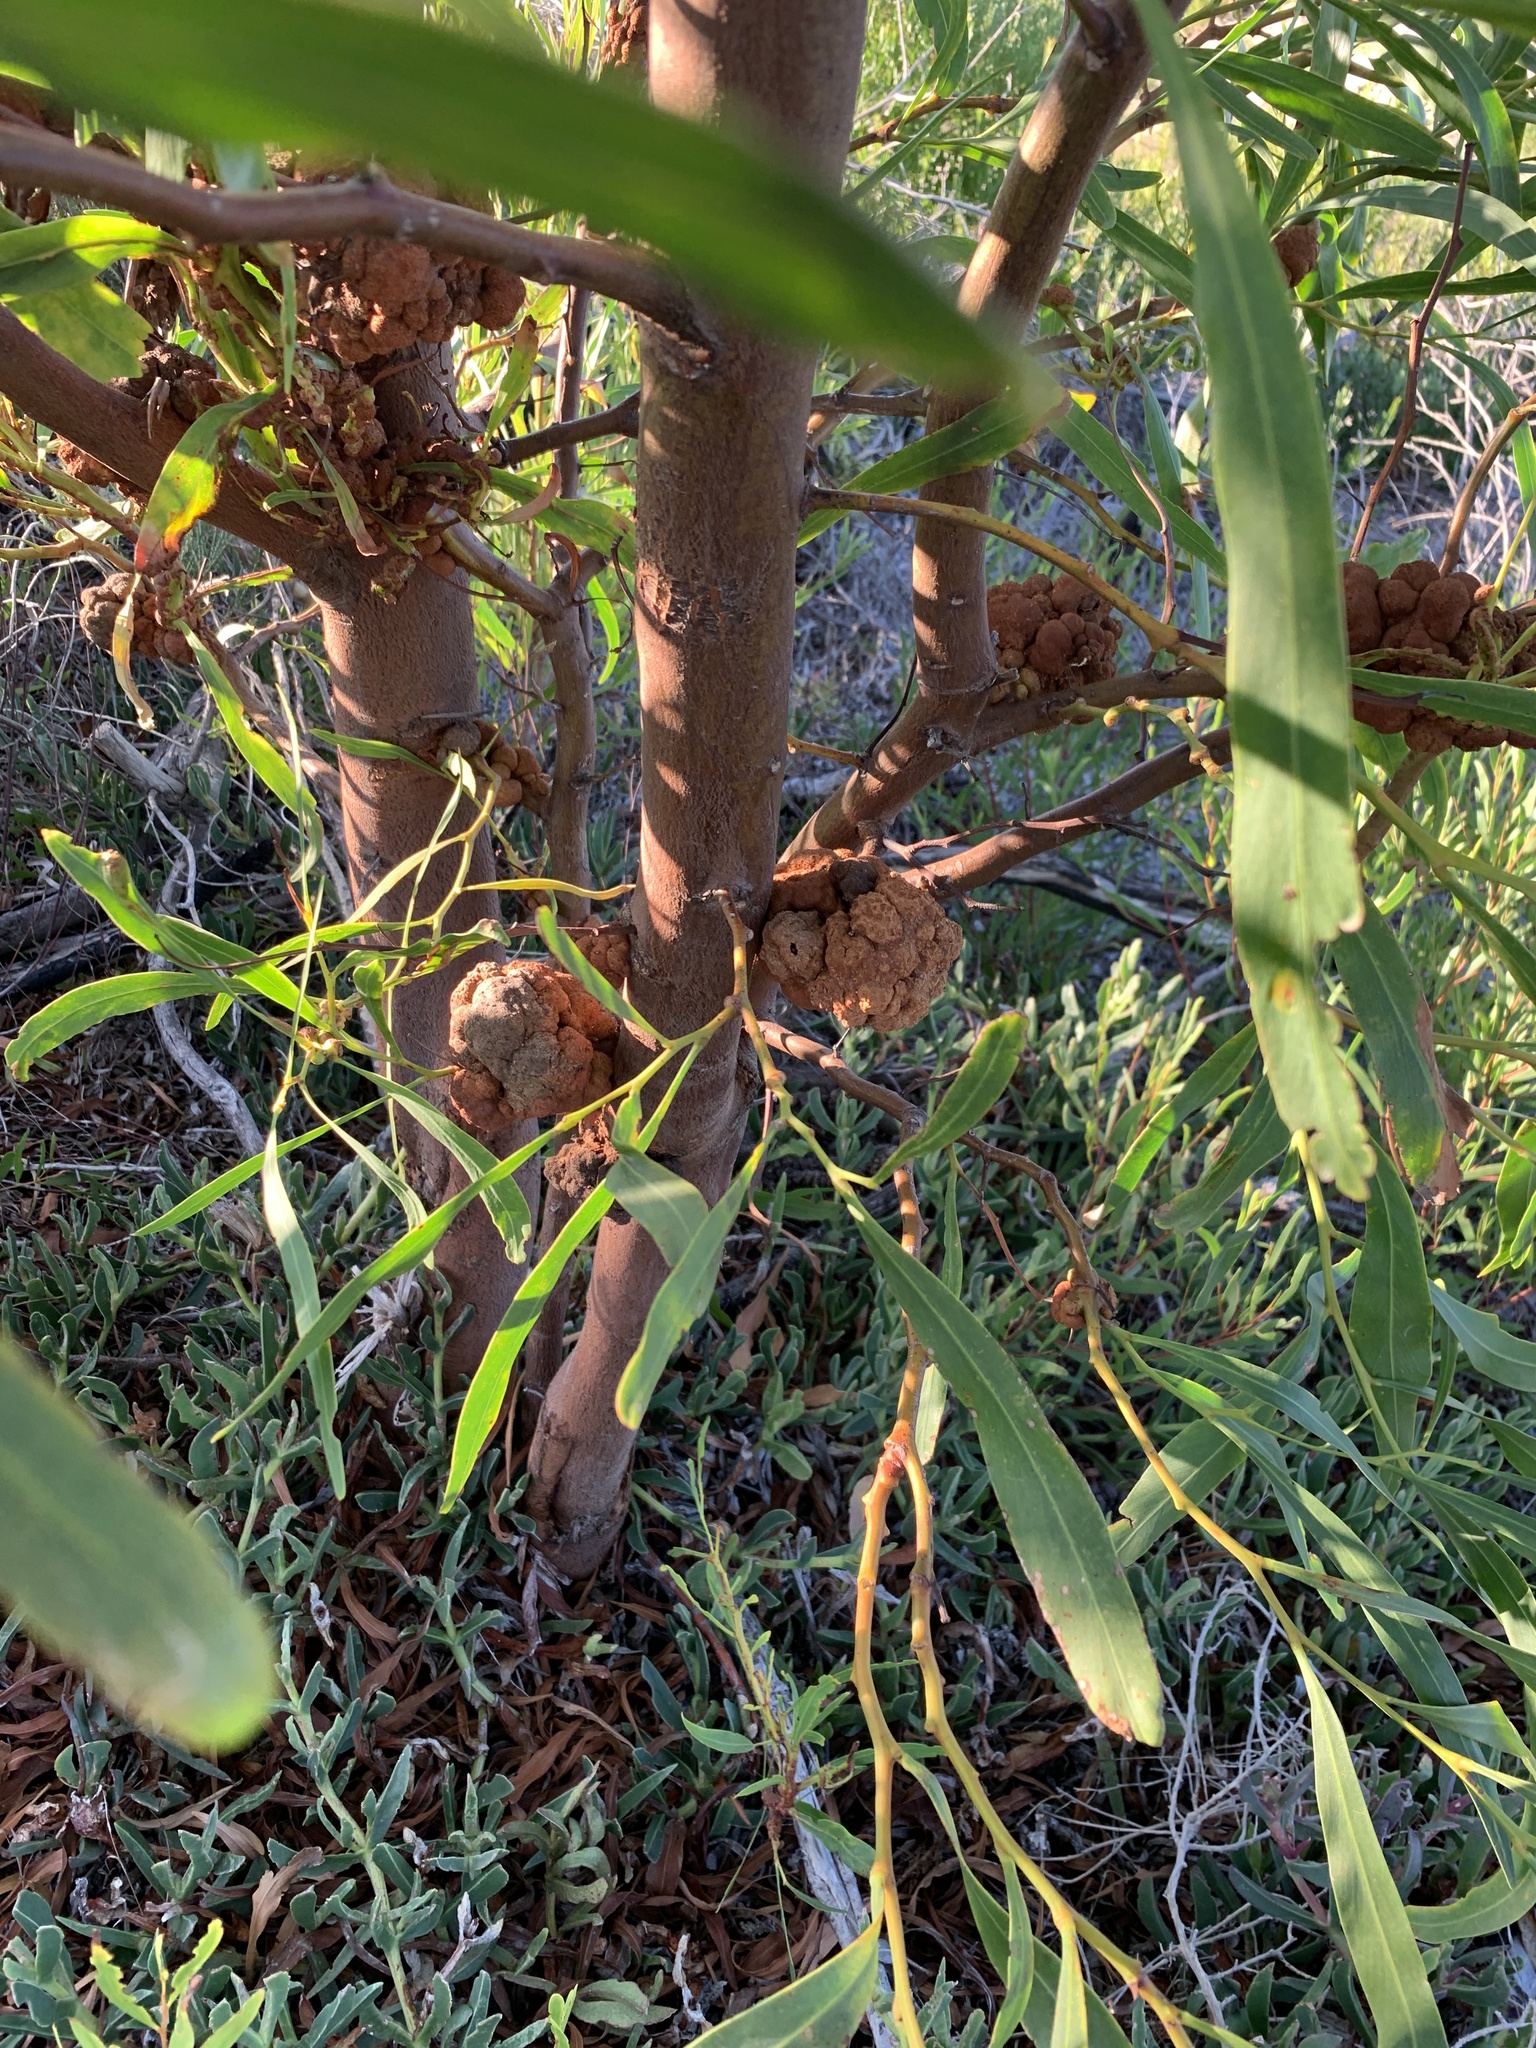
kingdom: Plantae
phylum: Tracheophyta
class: Magnoliopsida
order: Fabales
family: Fabaceae
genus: Acacia
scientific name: Acacia saligna
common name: Orange wattle
